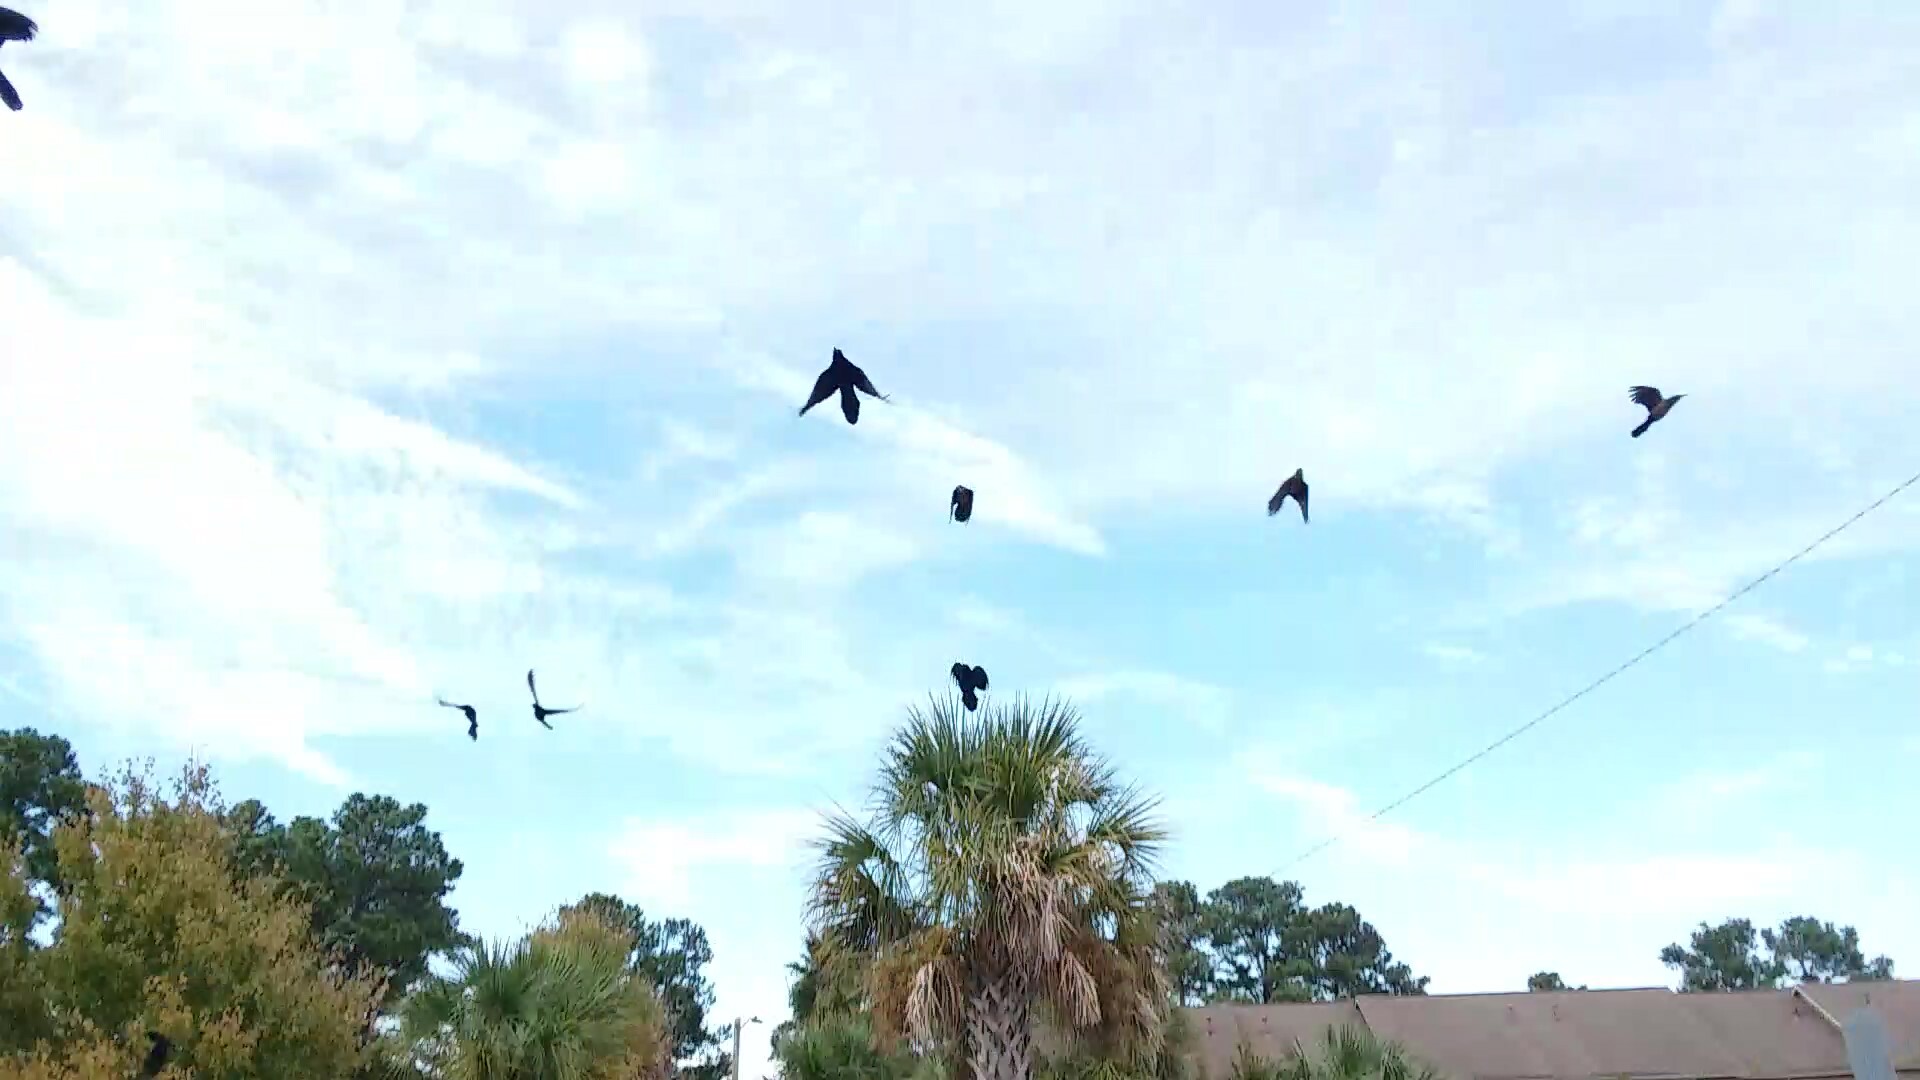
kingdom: Animalia
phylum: Chordata
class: Aves
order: Passeriformes
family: Icteridae
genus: Quiscalus
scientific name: Quiscalus major
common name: Boat-tailed grackle
